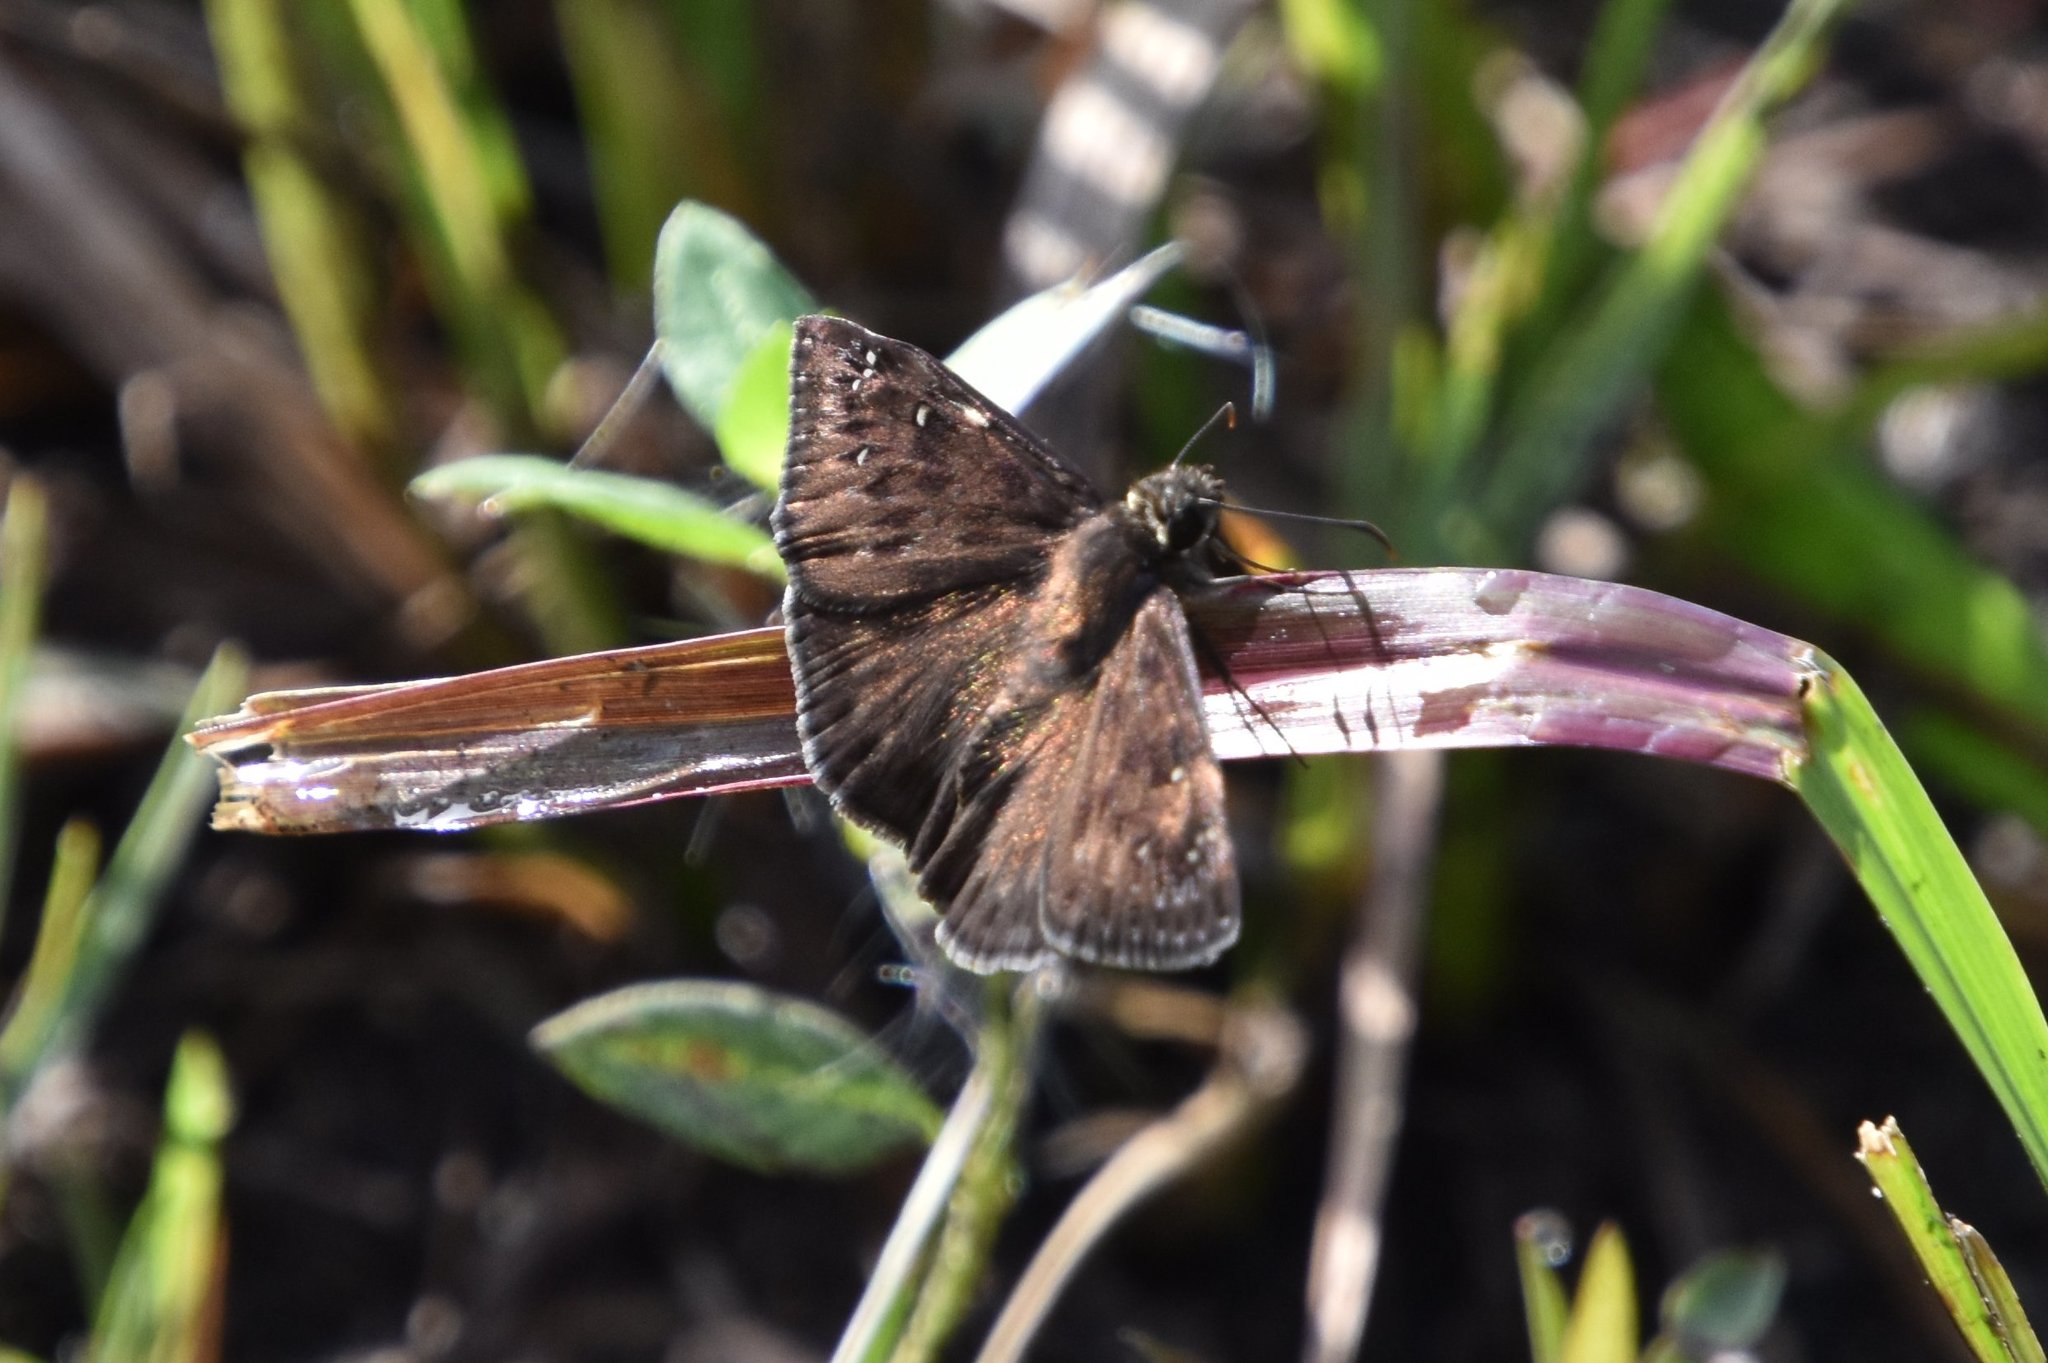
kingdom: Animalia
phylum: Arthropoda
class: Insecta
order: Lepidoptera
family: Hesperiidae
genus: Erynnis
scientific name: Erynnis horatius
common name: Horace's duskywing
